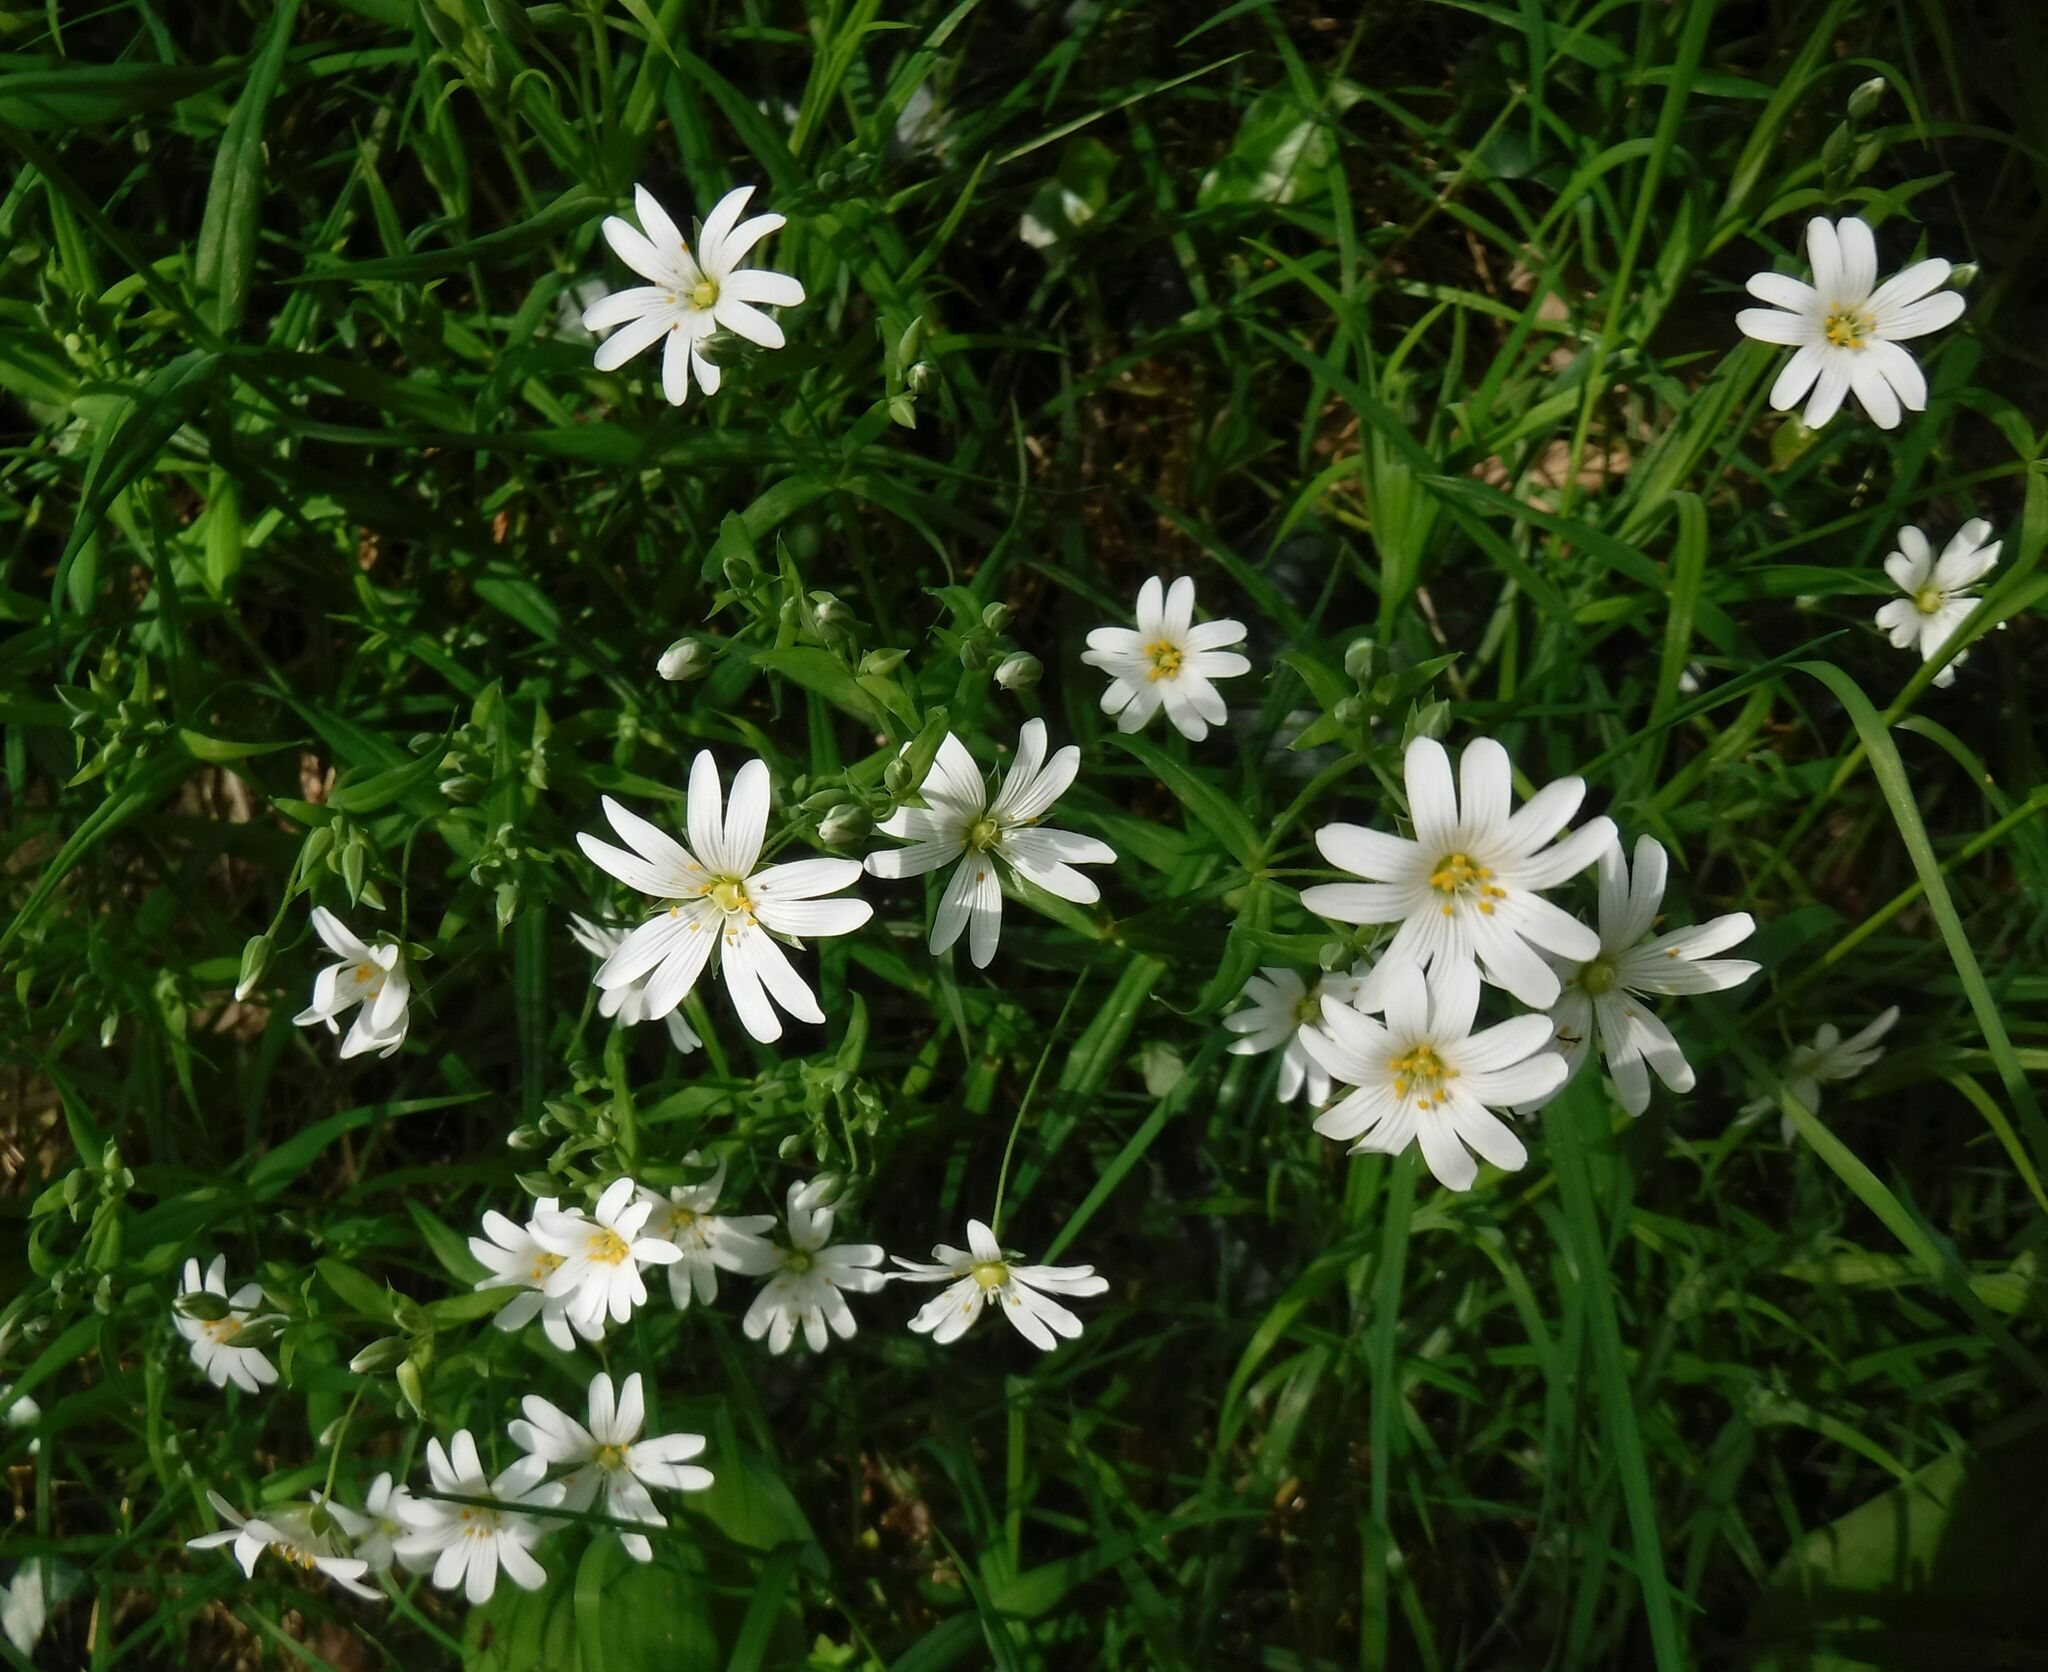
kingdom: Plantae
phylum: Tracheophyta
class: Magnoliopsida
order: Caryophyllales
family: Caryophyllaceae
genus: Rabelera
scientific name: Rabelera holostea
